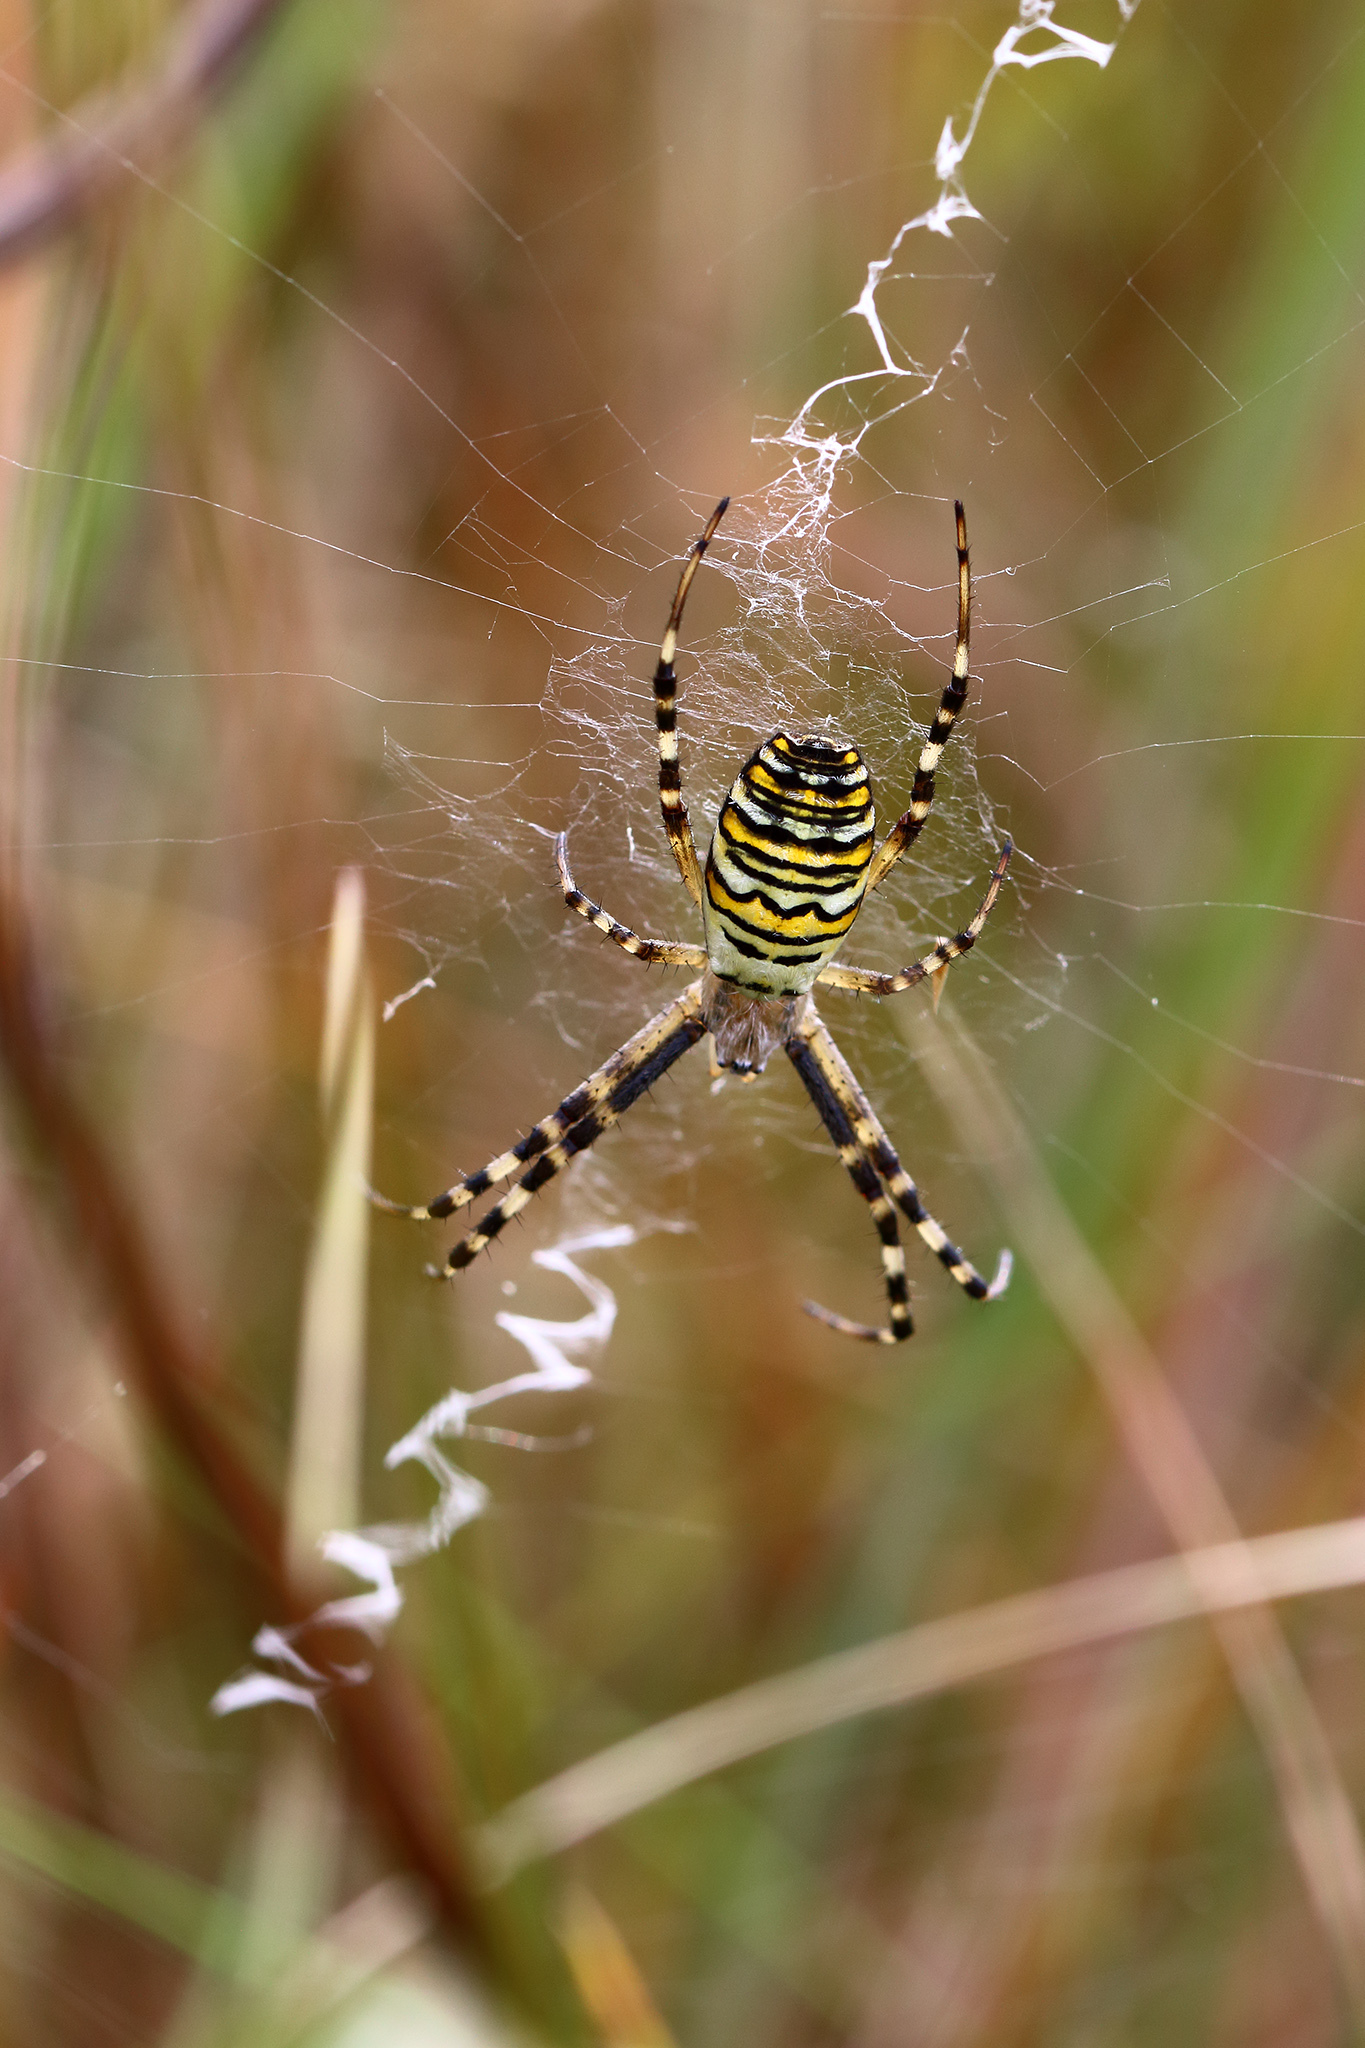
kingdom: Animalia
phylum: Arthropoda
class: Arachnida
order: Araneae
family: Araneidae
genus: Argiope
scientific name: Argiope bruennichi
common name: Wasp spider
